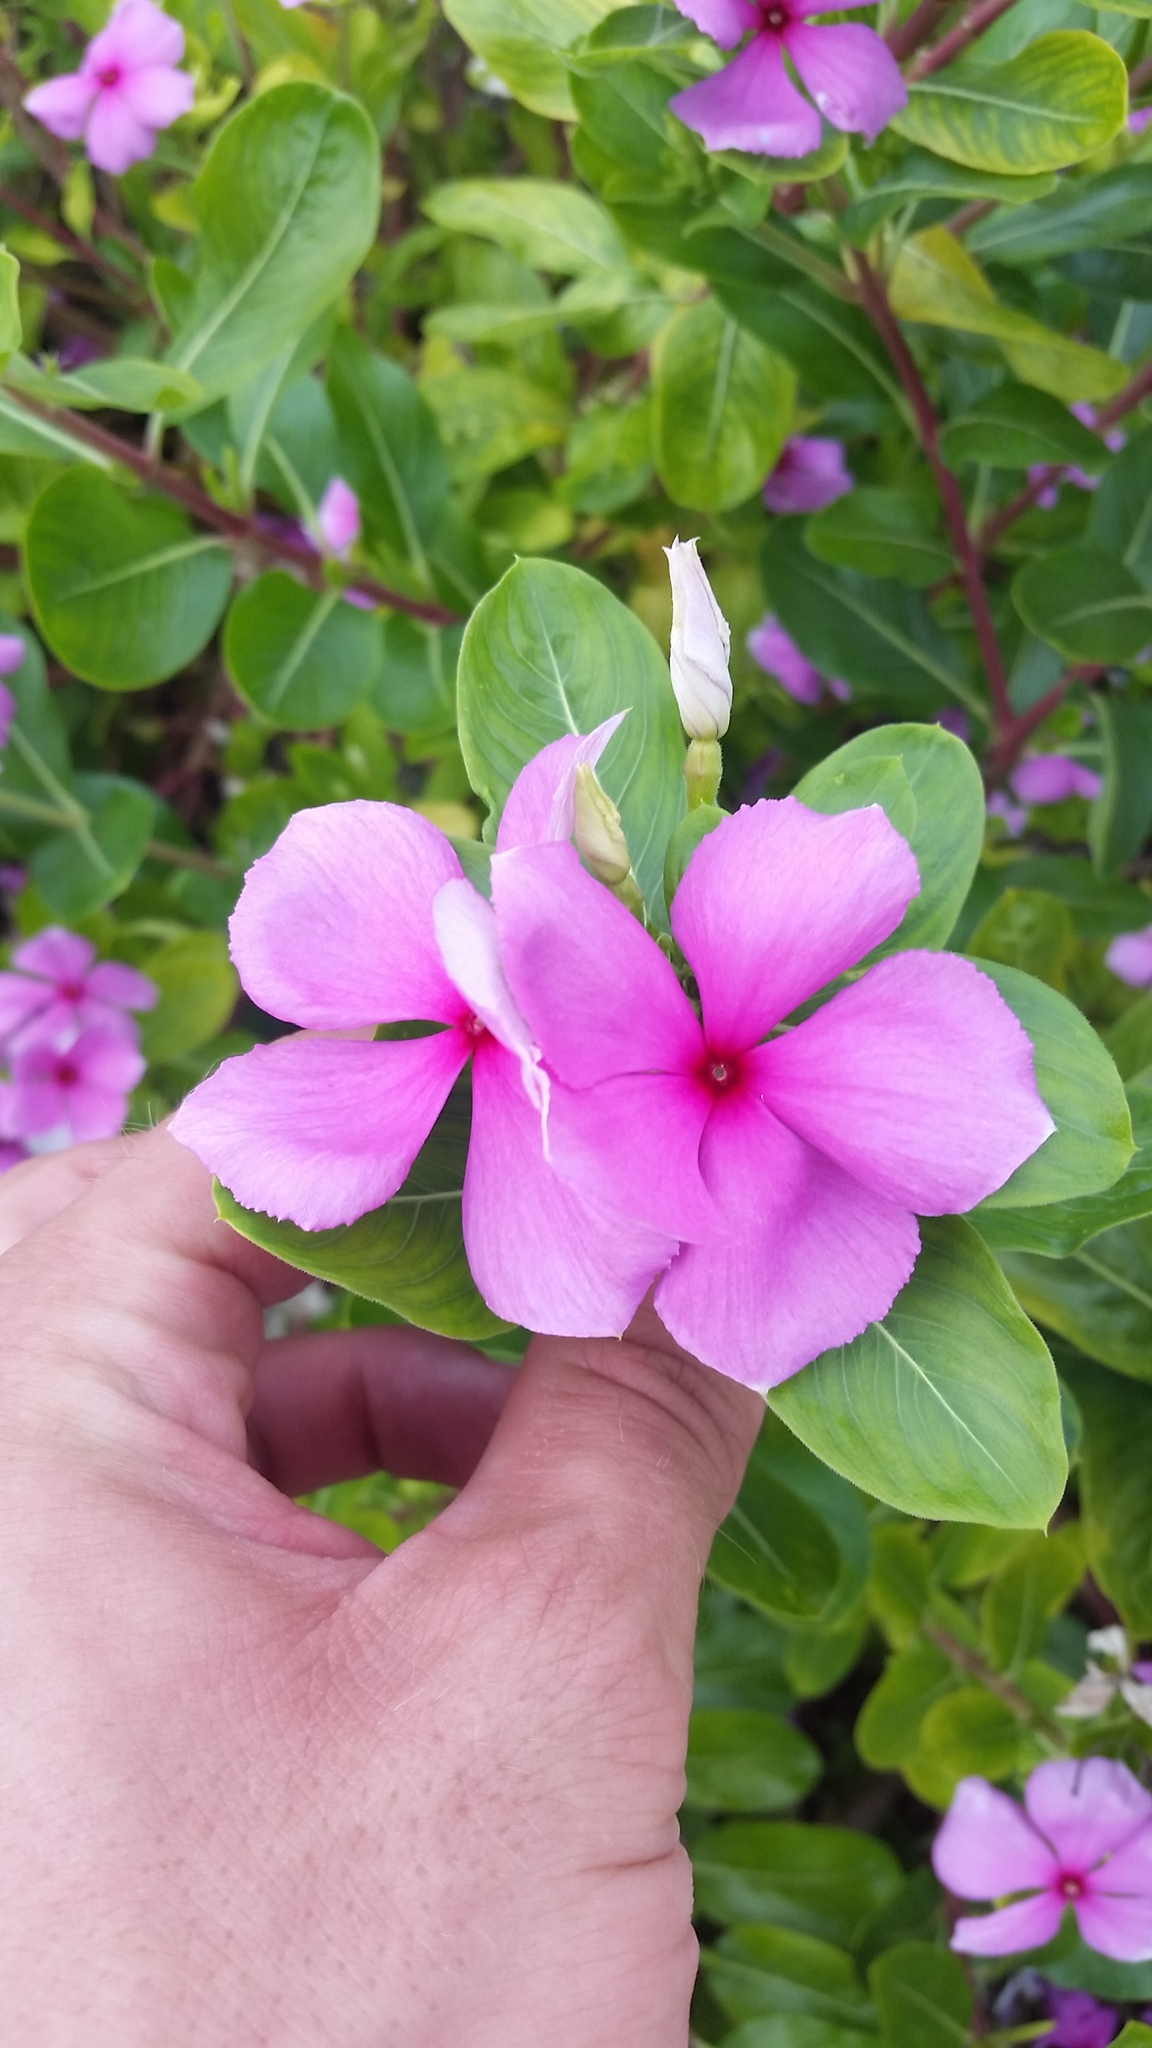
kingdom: Plantae
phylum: Tracheophyta
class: Magnoliopsida
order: Gentianales
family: Apocynaceae
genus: Catharanthus
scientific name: Catharanthus roseus
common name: Madagascar periwinkle
